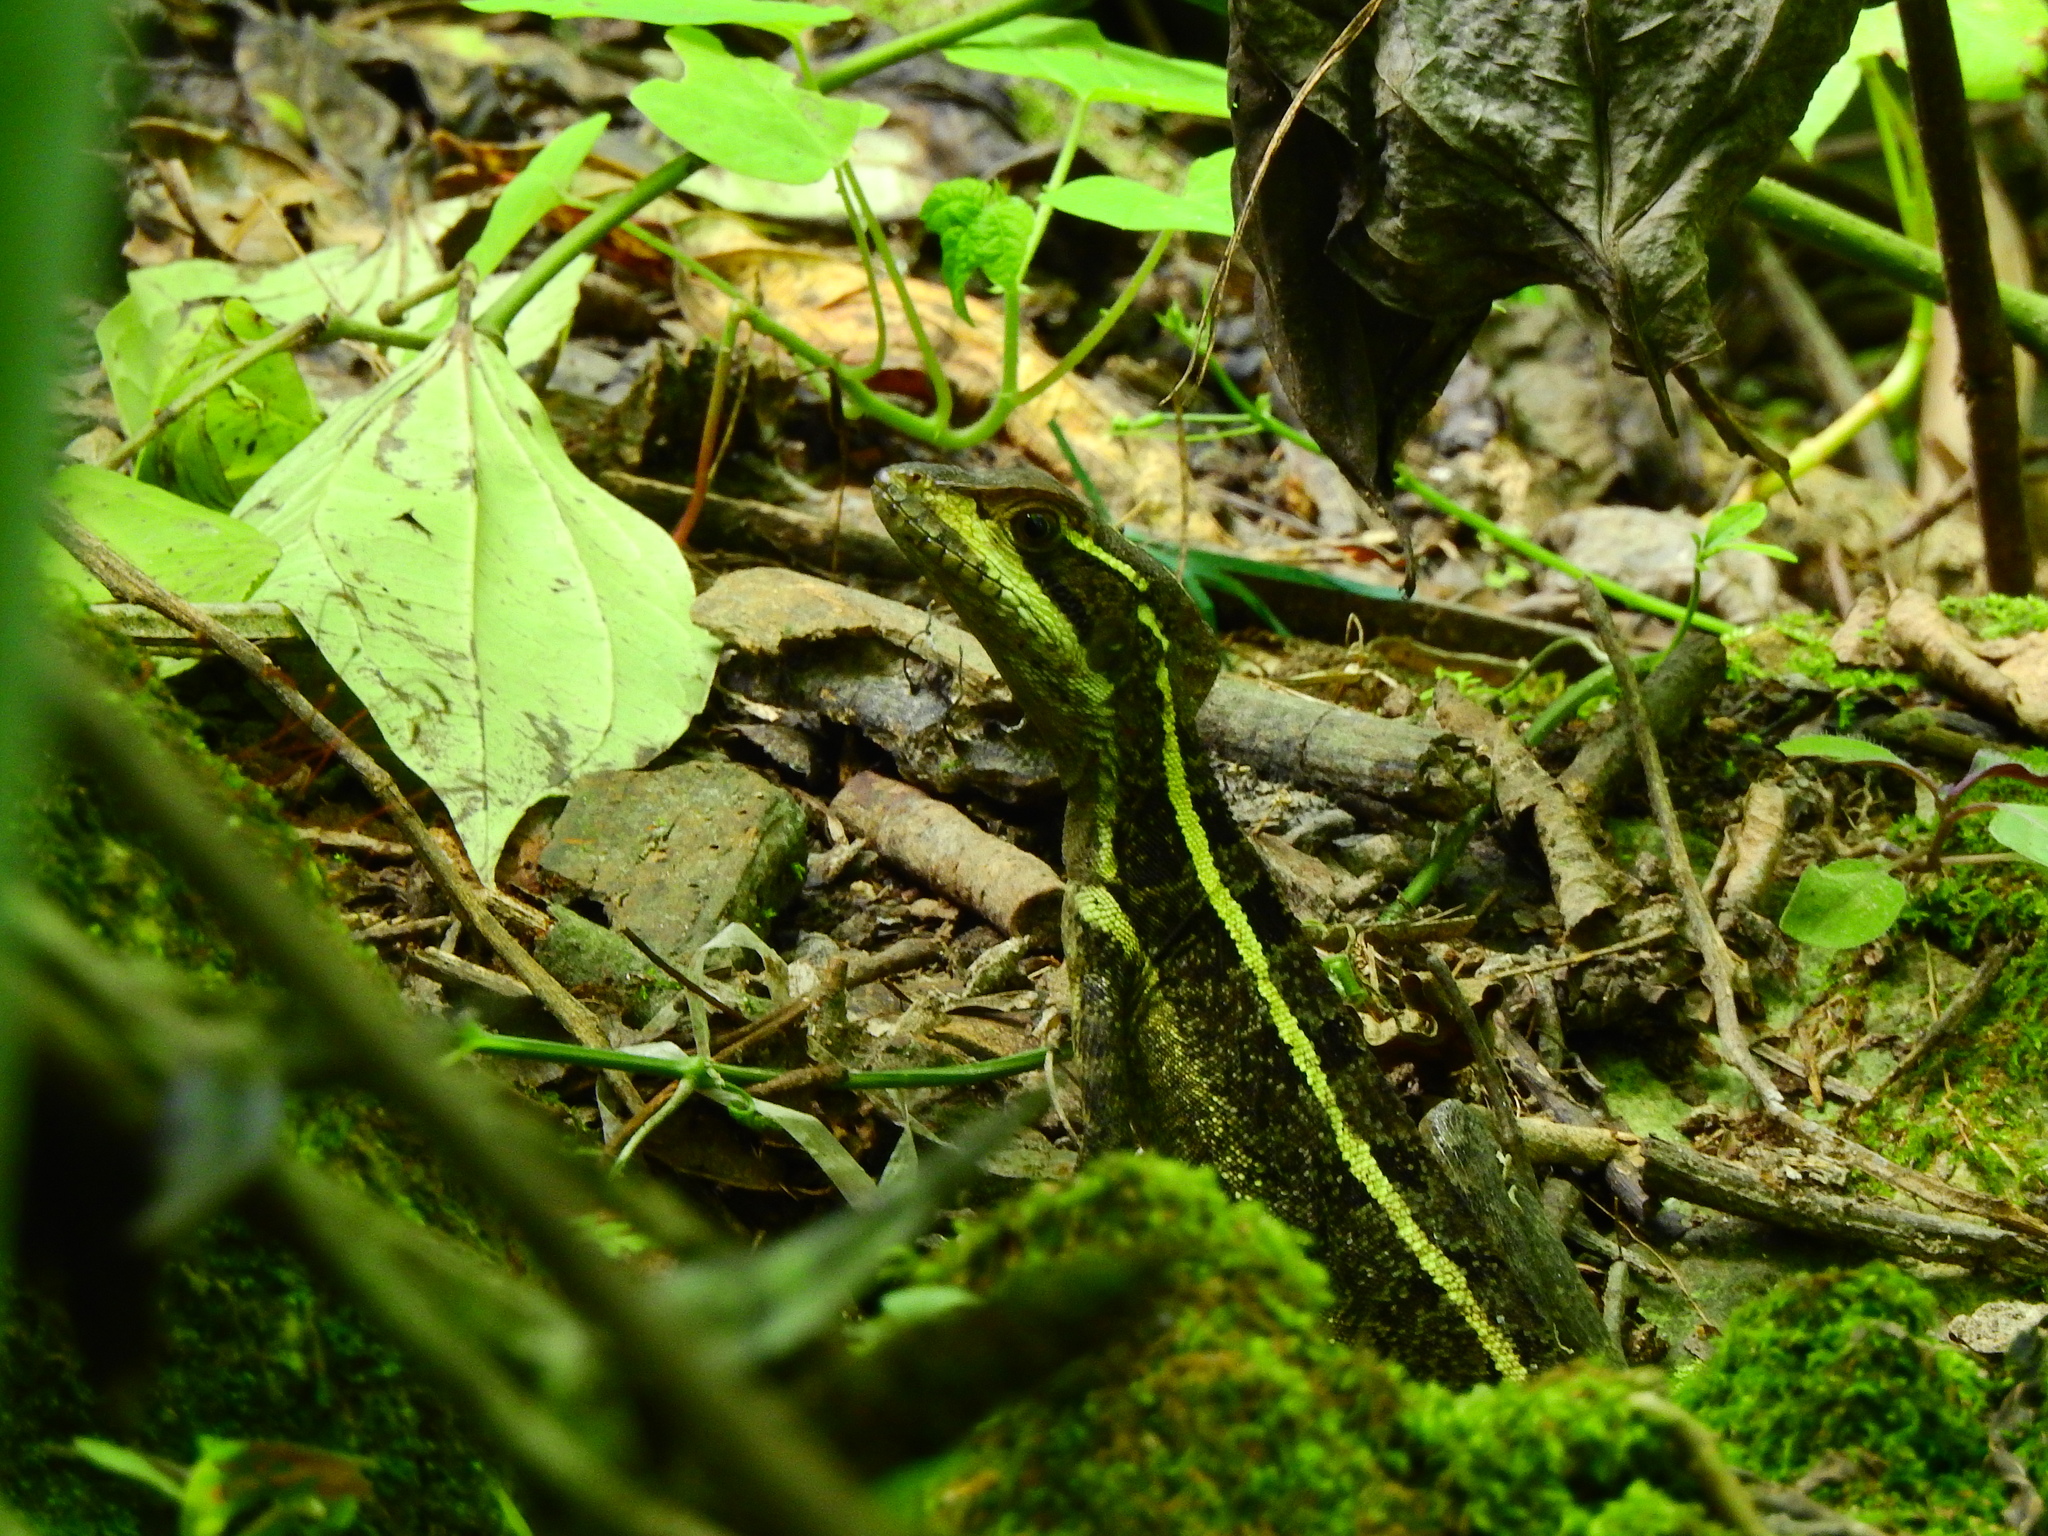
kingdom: Animalia
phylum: Chordata
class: Squamata
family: Corytophanidae
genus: Basiliscus
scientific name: Basiliscus vittatus
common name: Brown basilisk
